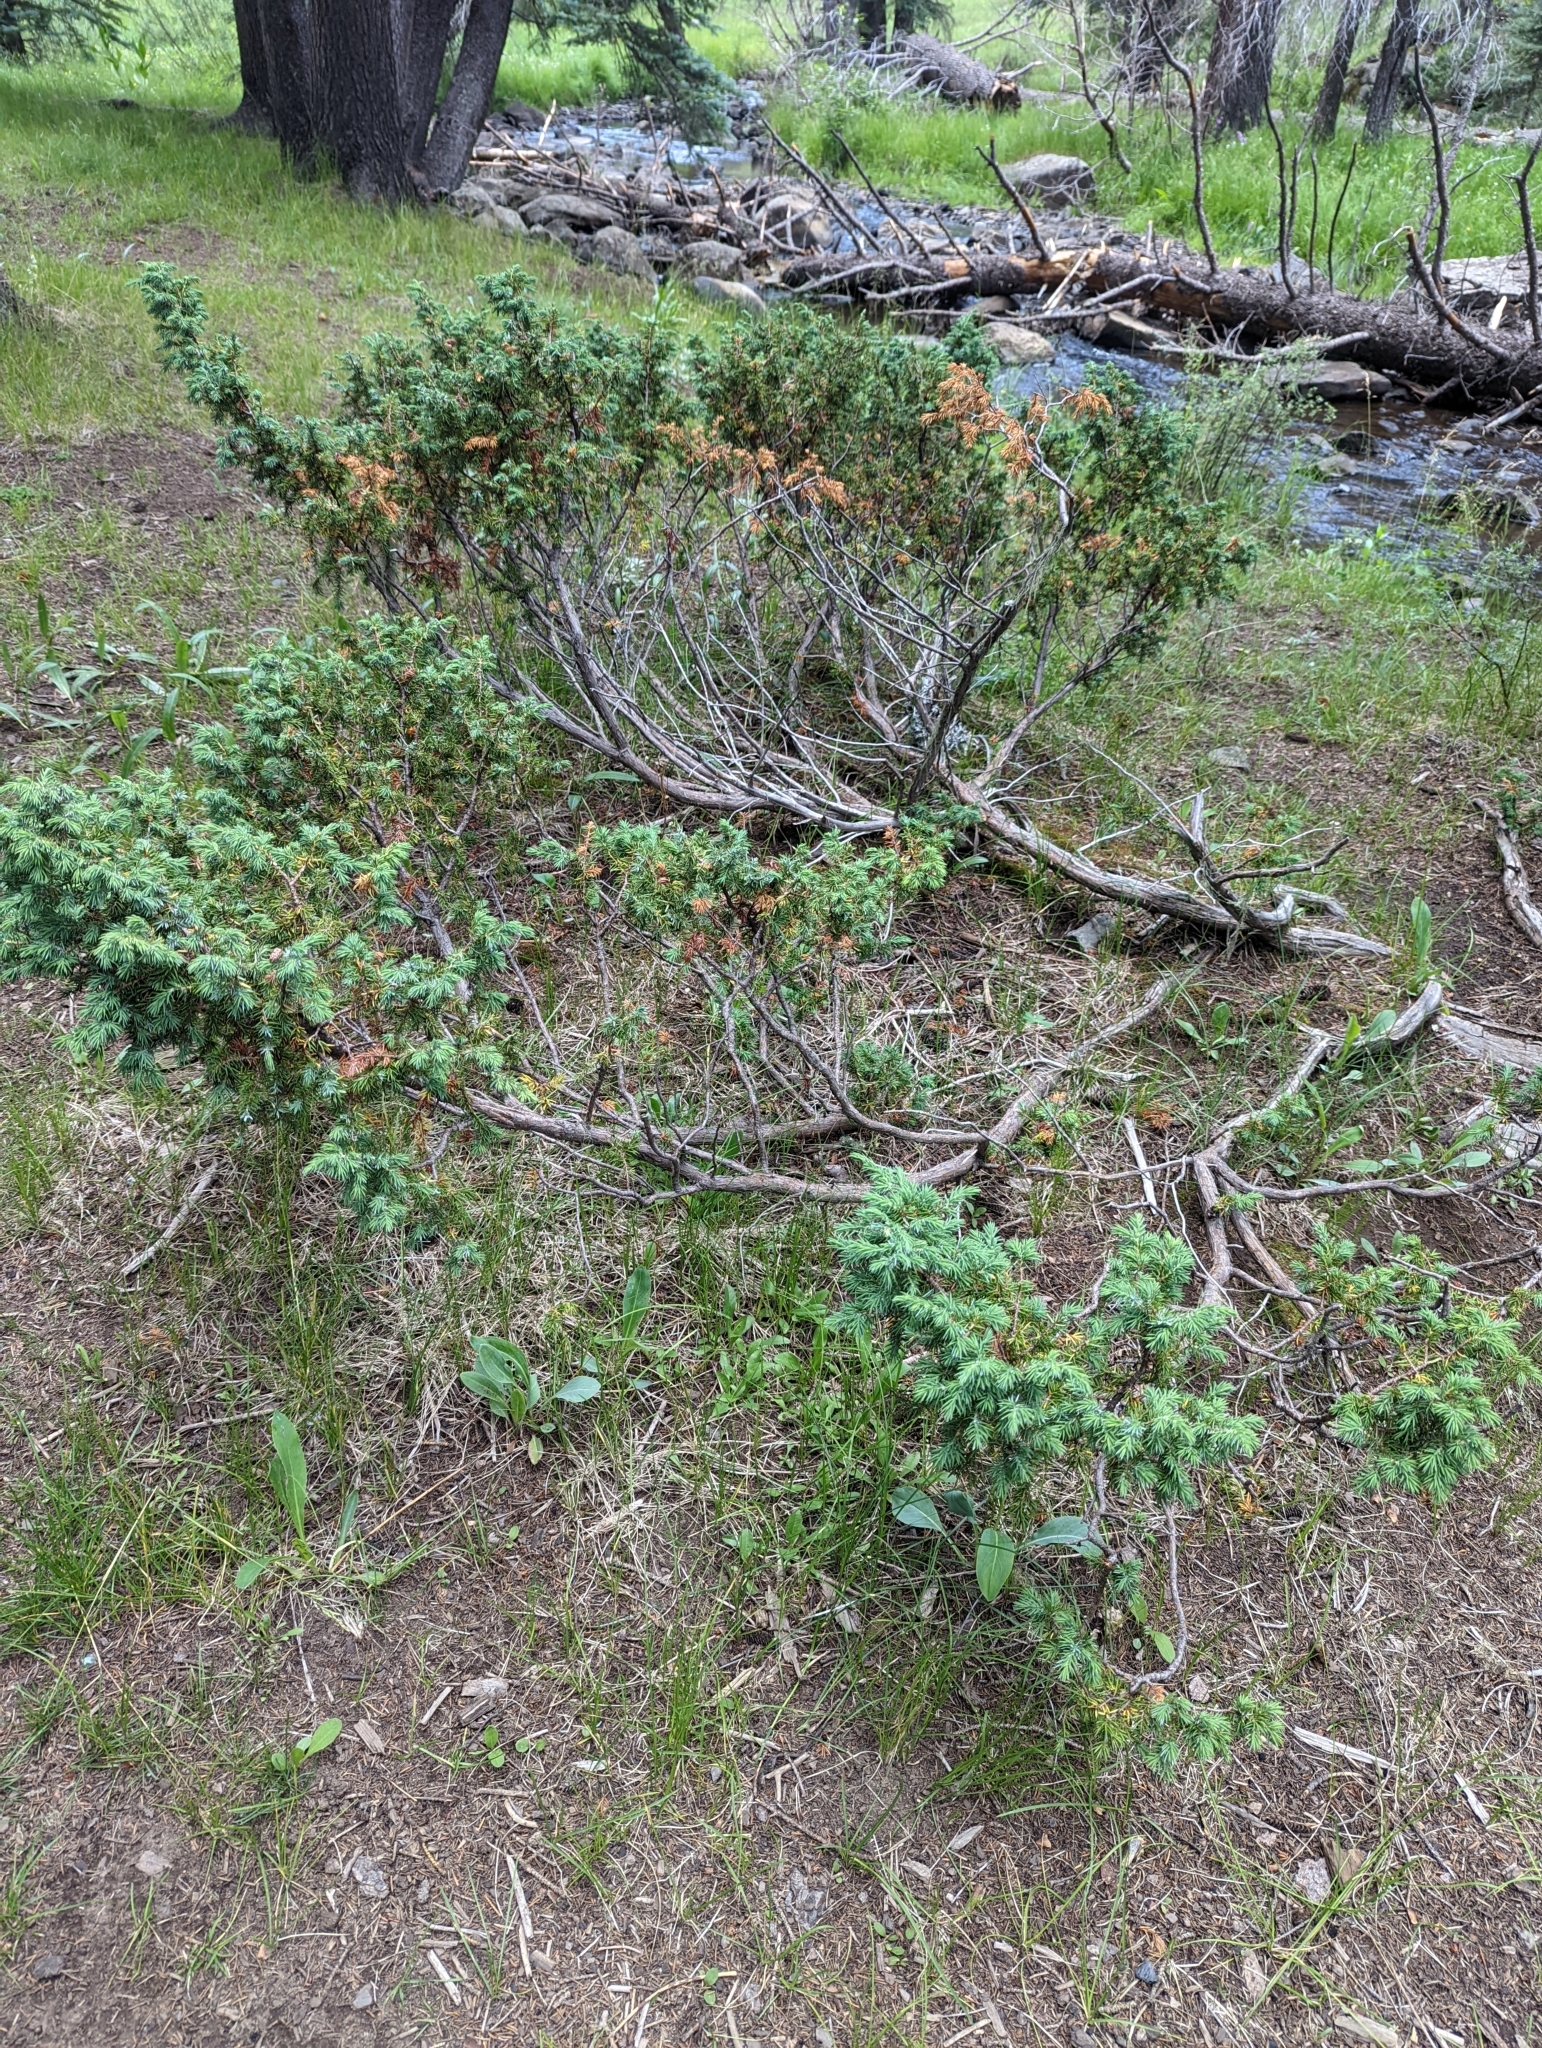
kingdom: Plantae
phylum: Tracheophyta
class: Pinopsida
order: Pinales
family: Cupressaceae
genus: Juniperus
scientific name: Juniperus communis
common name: Common juniper
